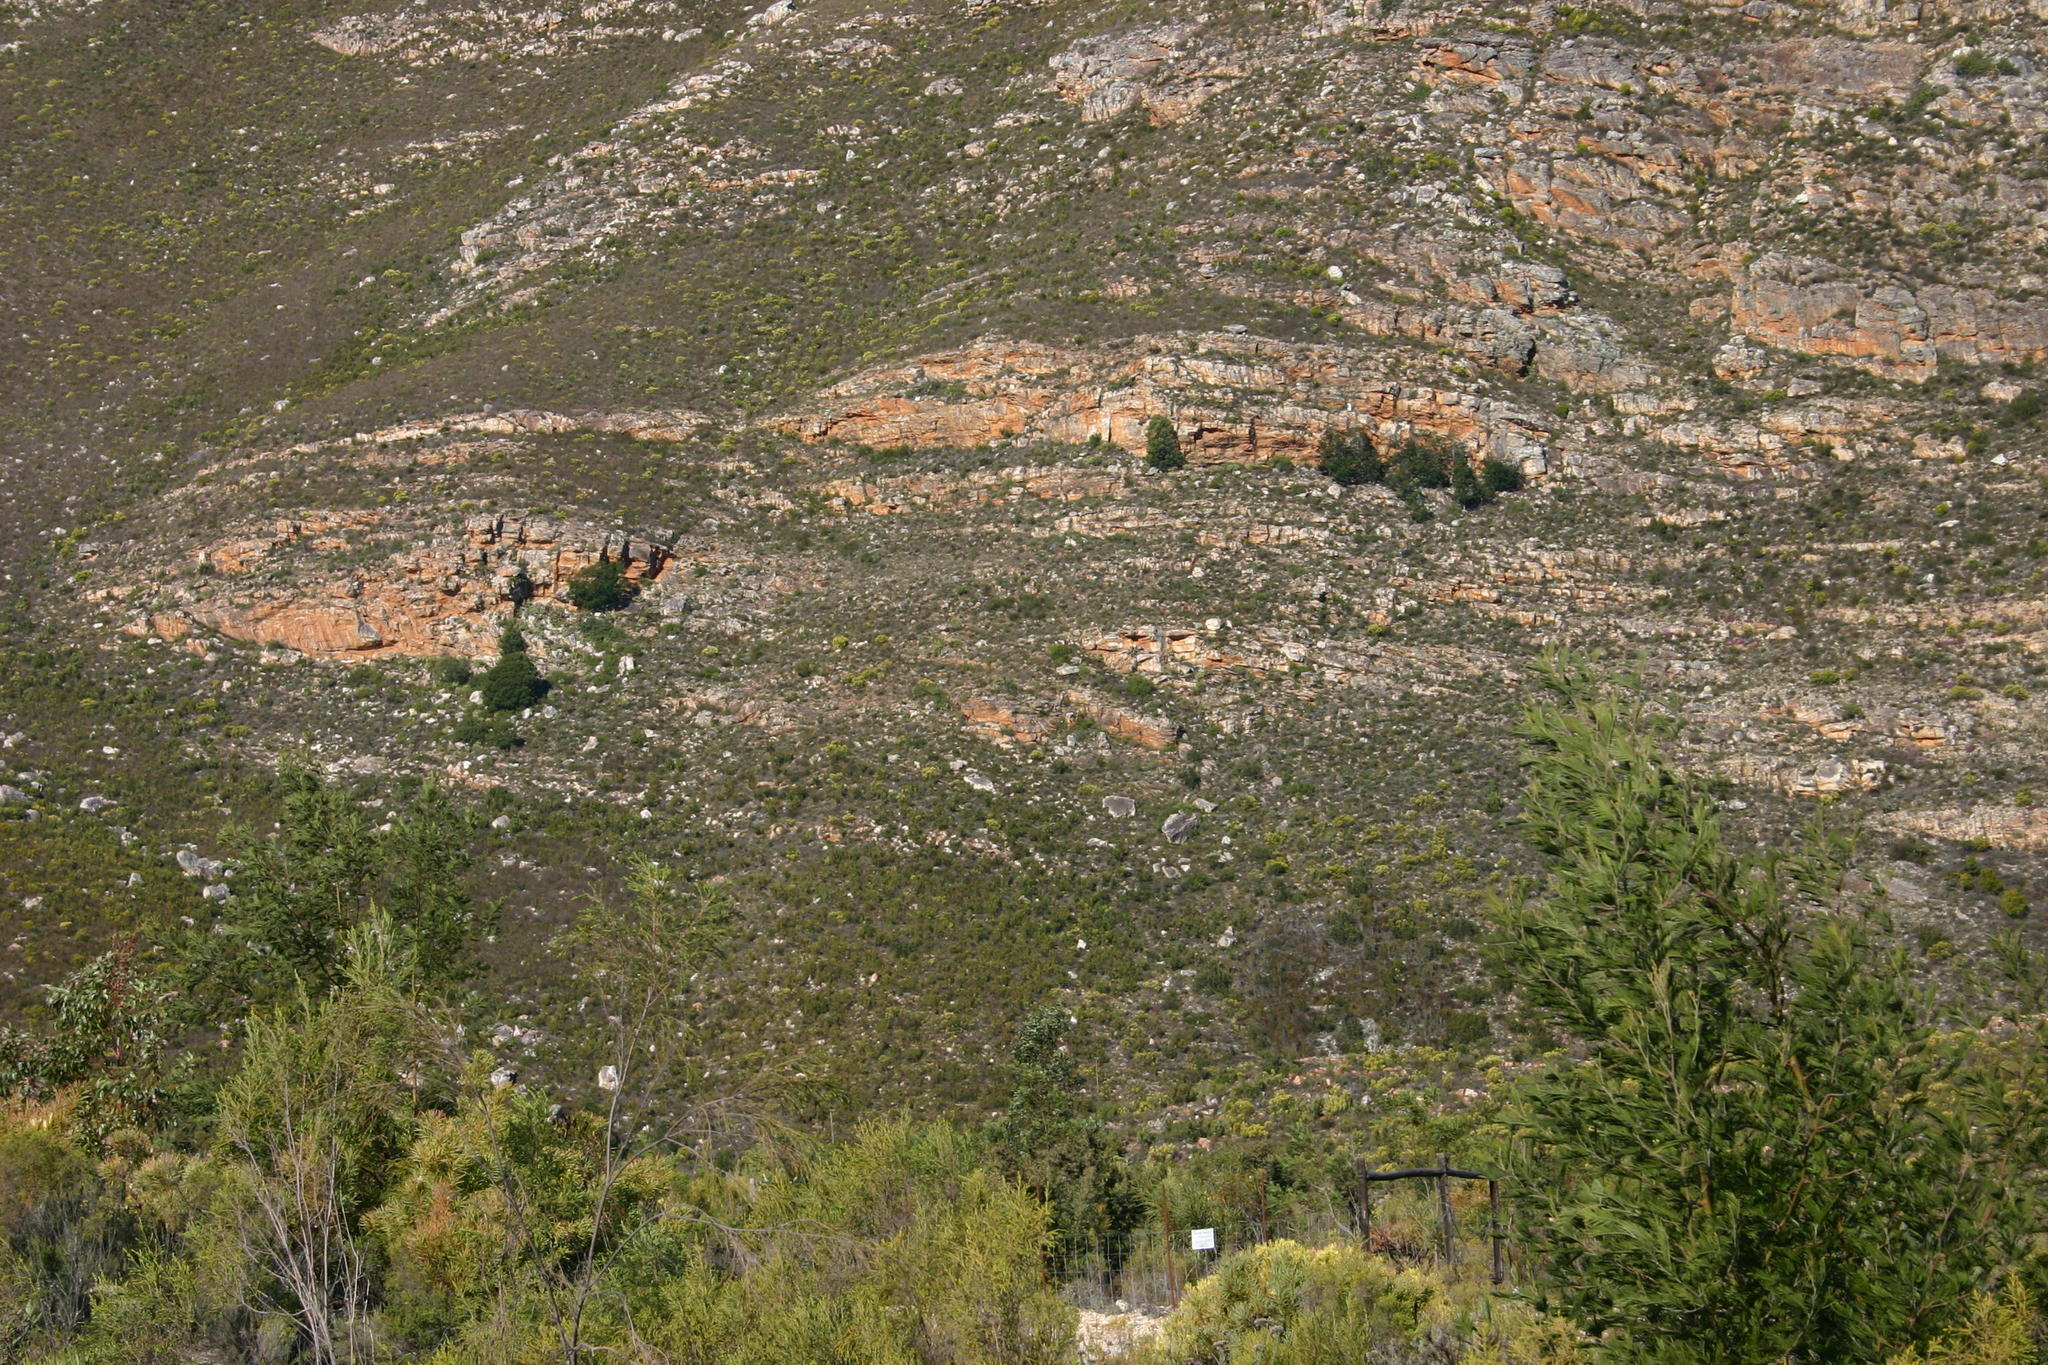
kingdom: Plantae
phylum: Tracheophyta
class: Magnoliopsida
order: Fabales
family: Fabaceae
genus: Acacia
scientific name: Acacia mearnsii
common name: Black wattle
